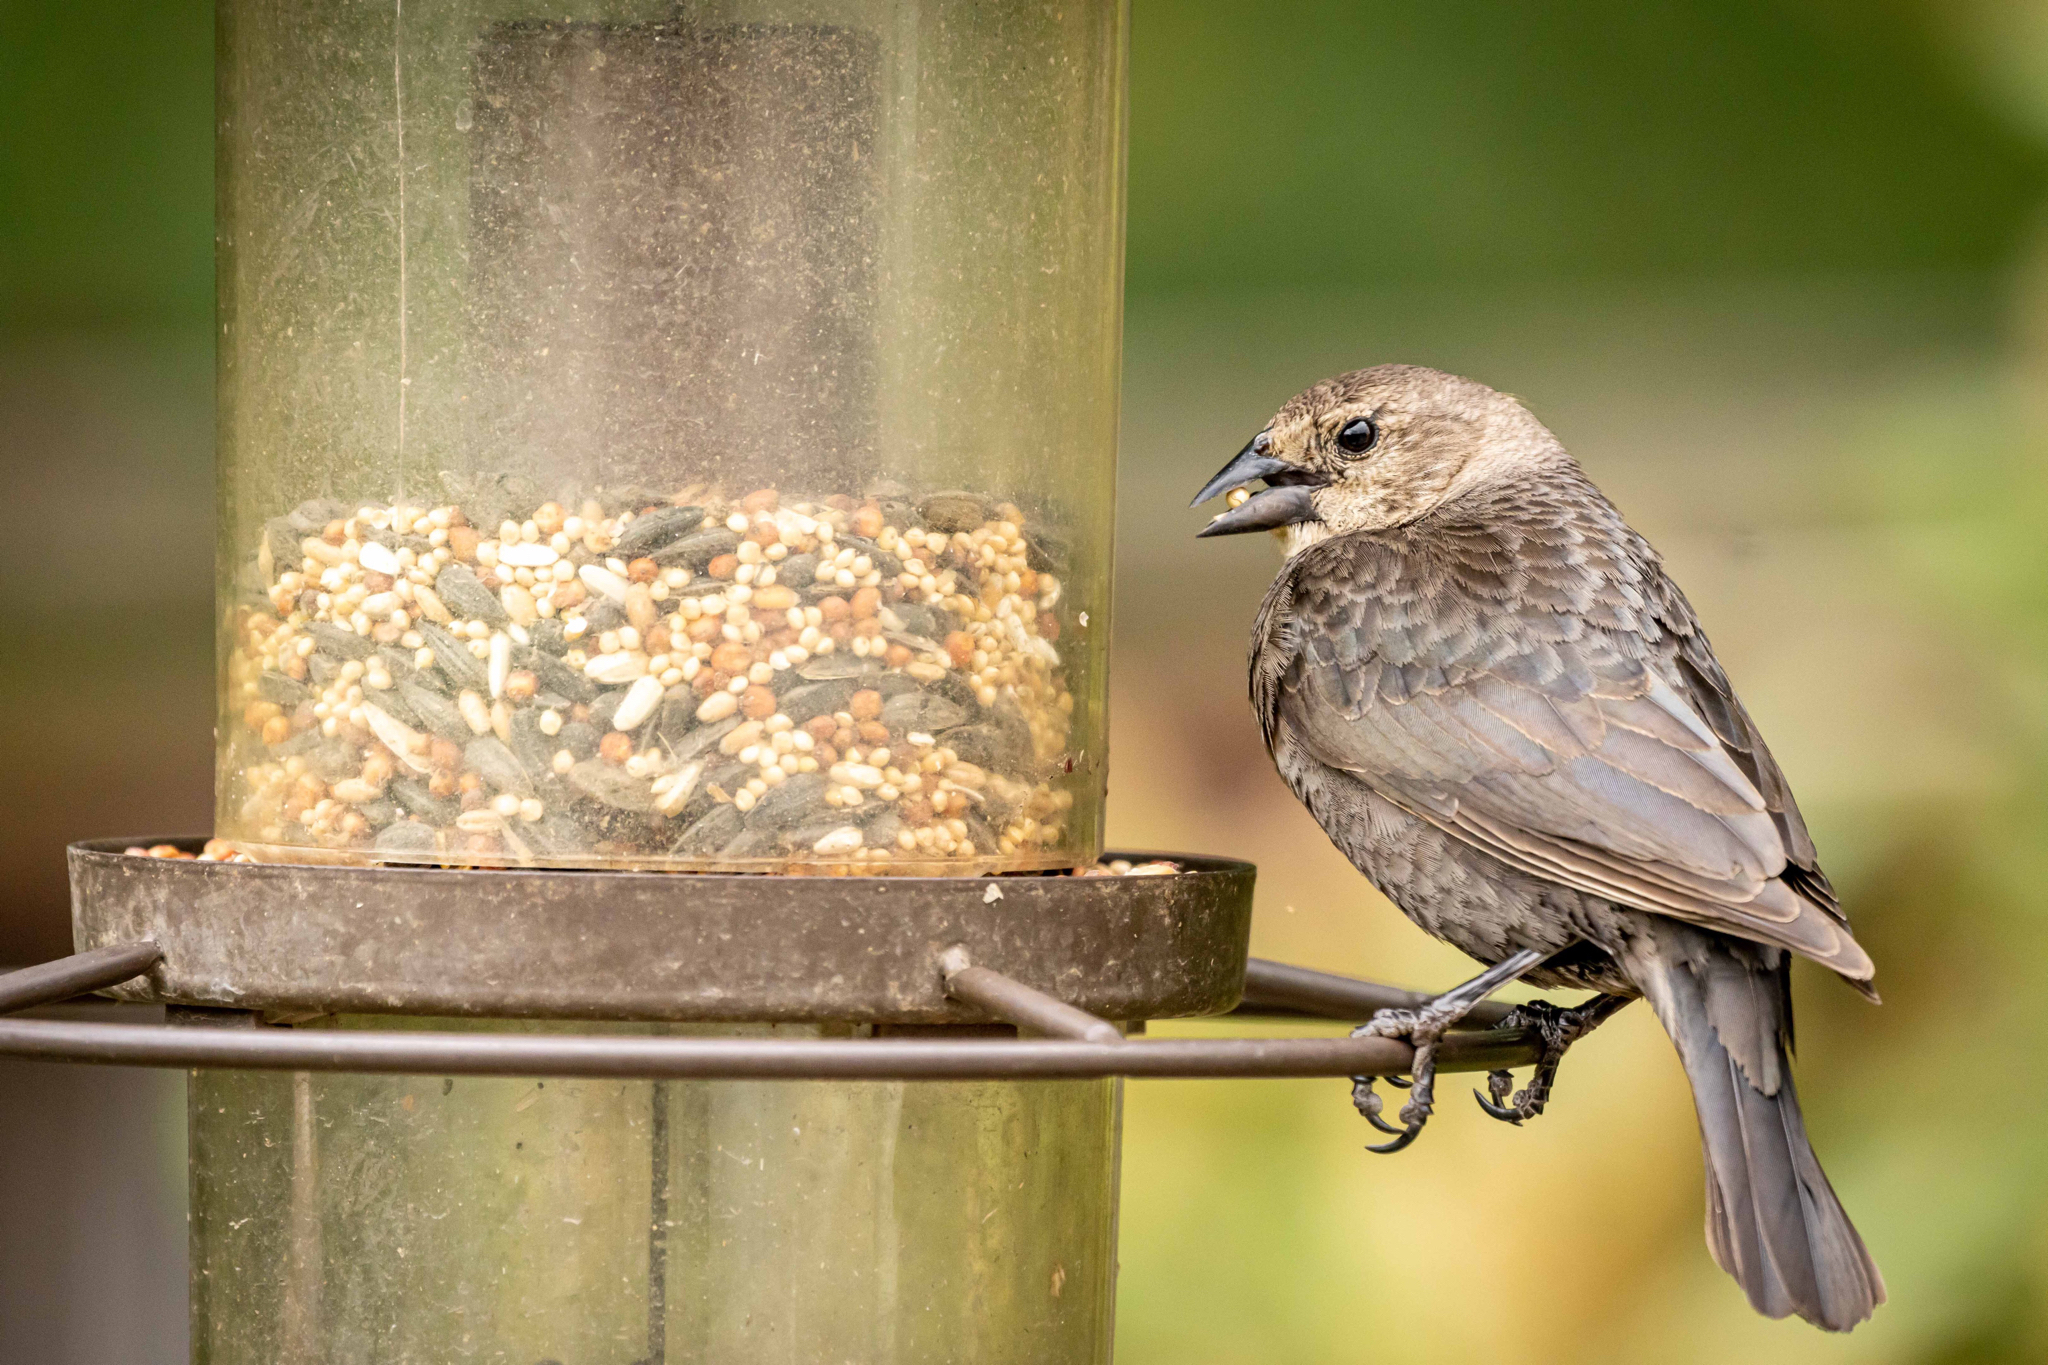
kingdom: Animalia
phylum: Chordata
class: Aves
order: Passeriformes
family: Icteridae
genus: Molothrus
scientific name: Molothrus ater
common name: Brown-headed cowbird
